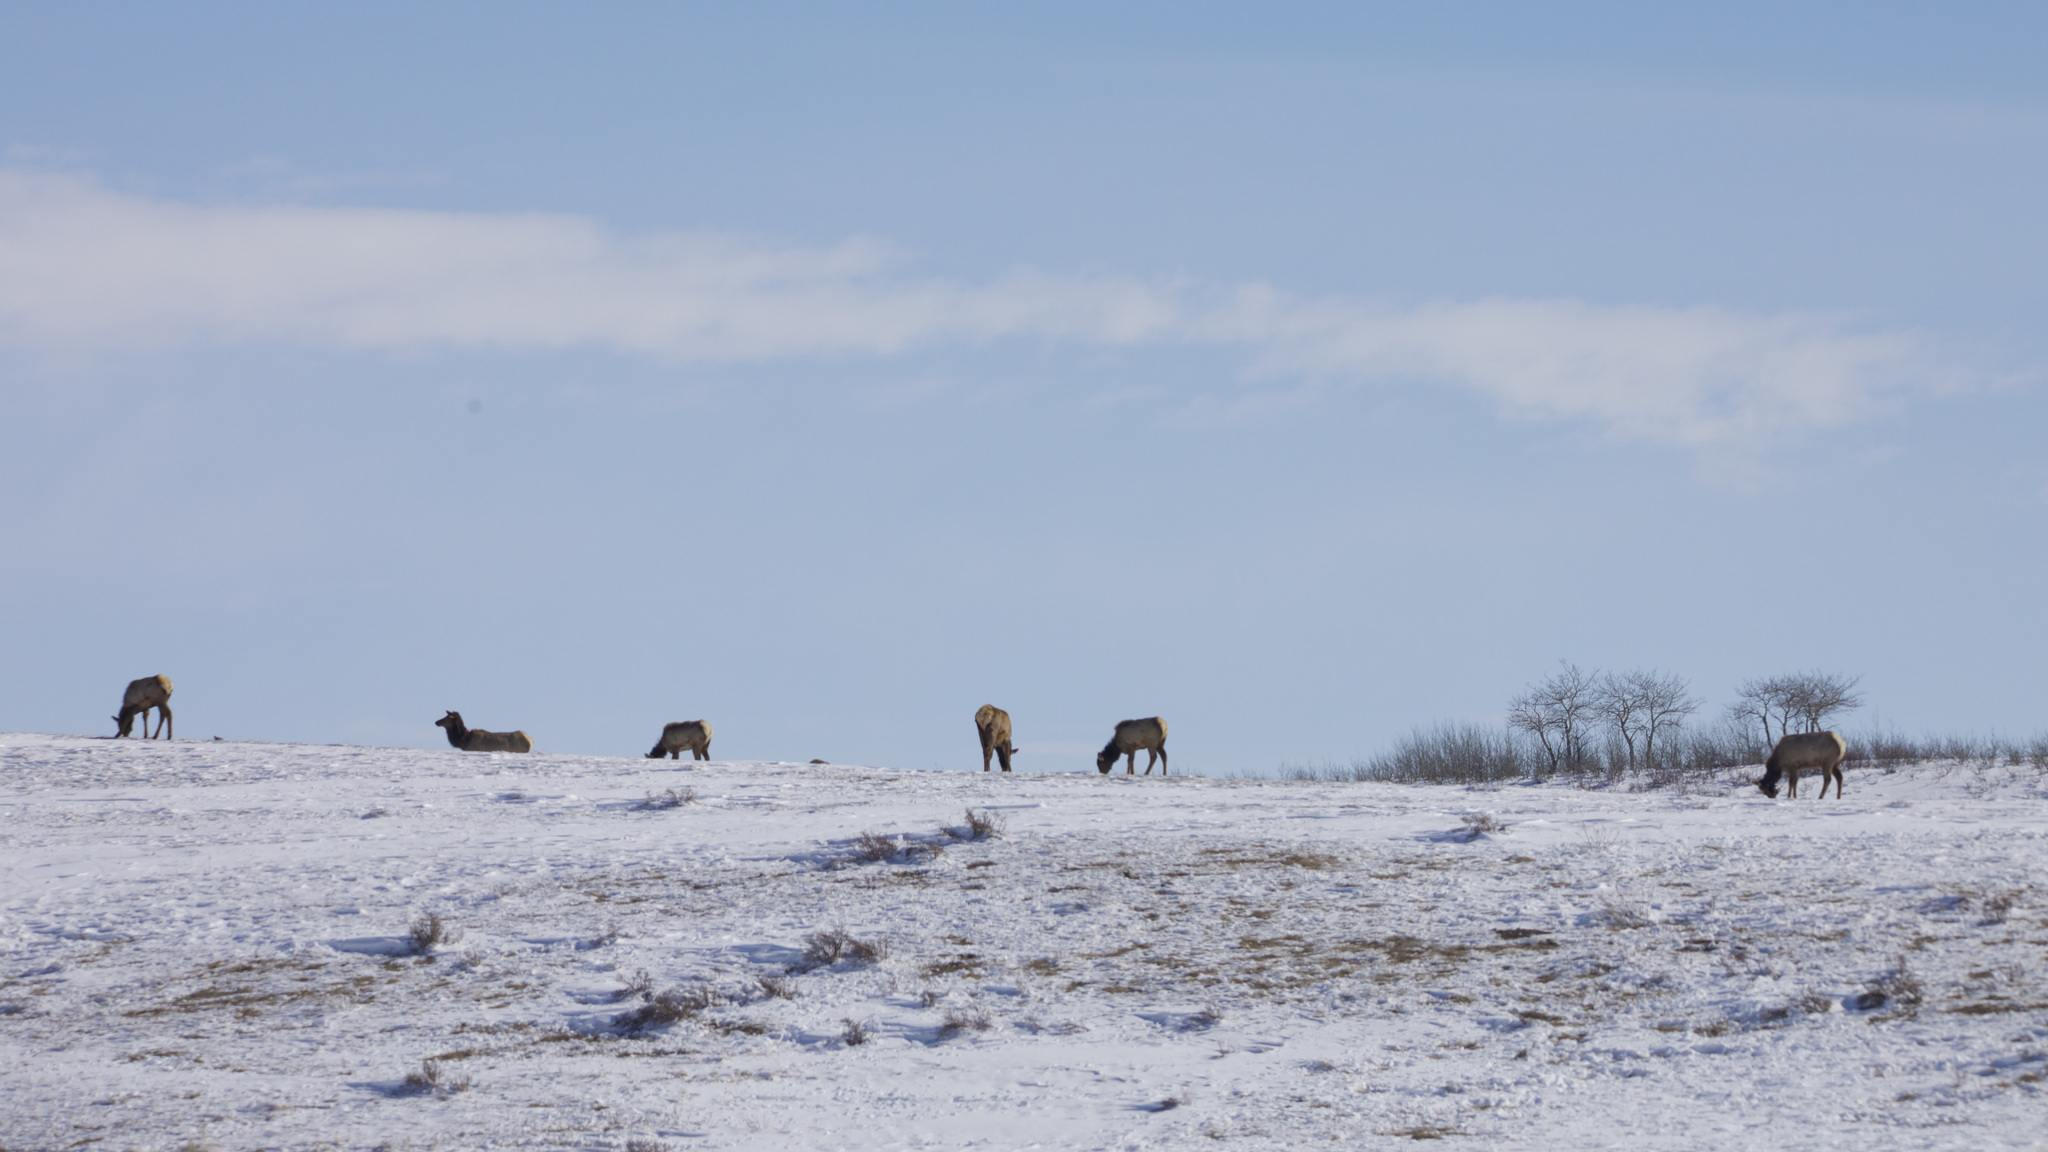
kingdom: Animalia
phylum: Chordata
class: Mammalia
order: Artiodactyla
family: Cervidae
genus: Cervus
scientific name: Cervus elaphus
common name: Red deer
